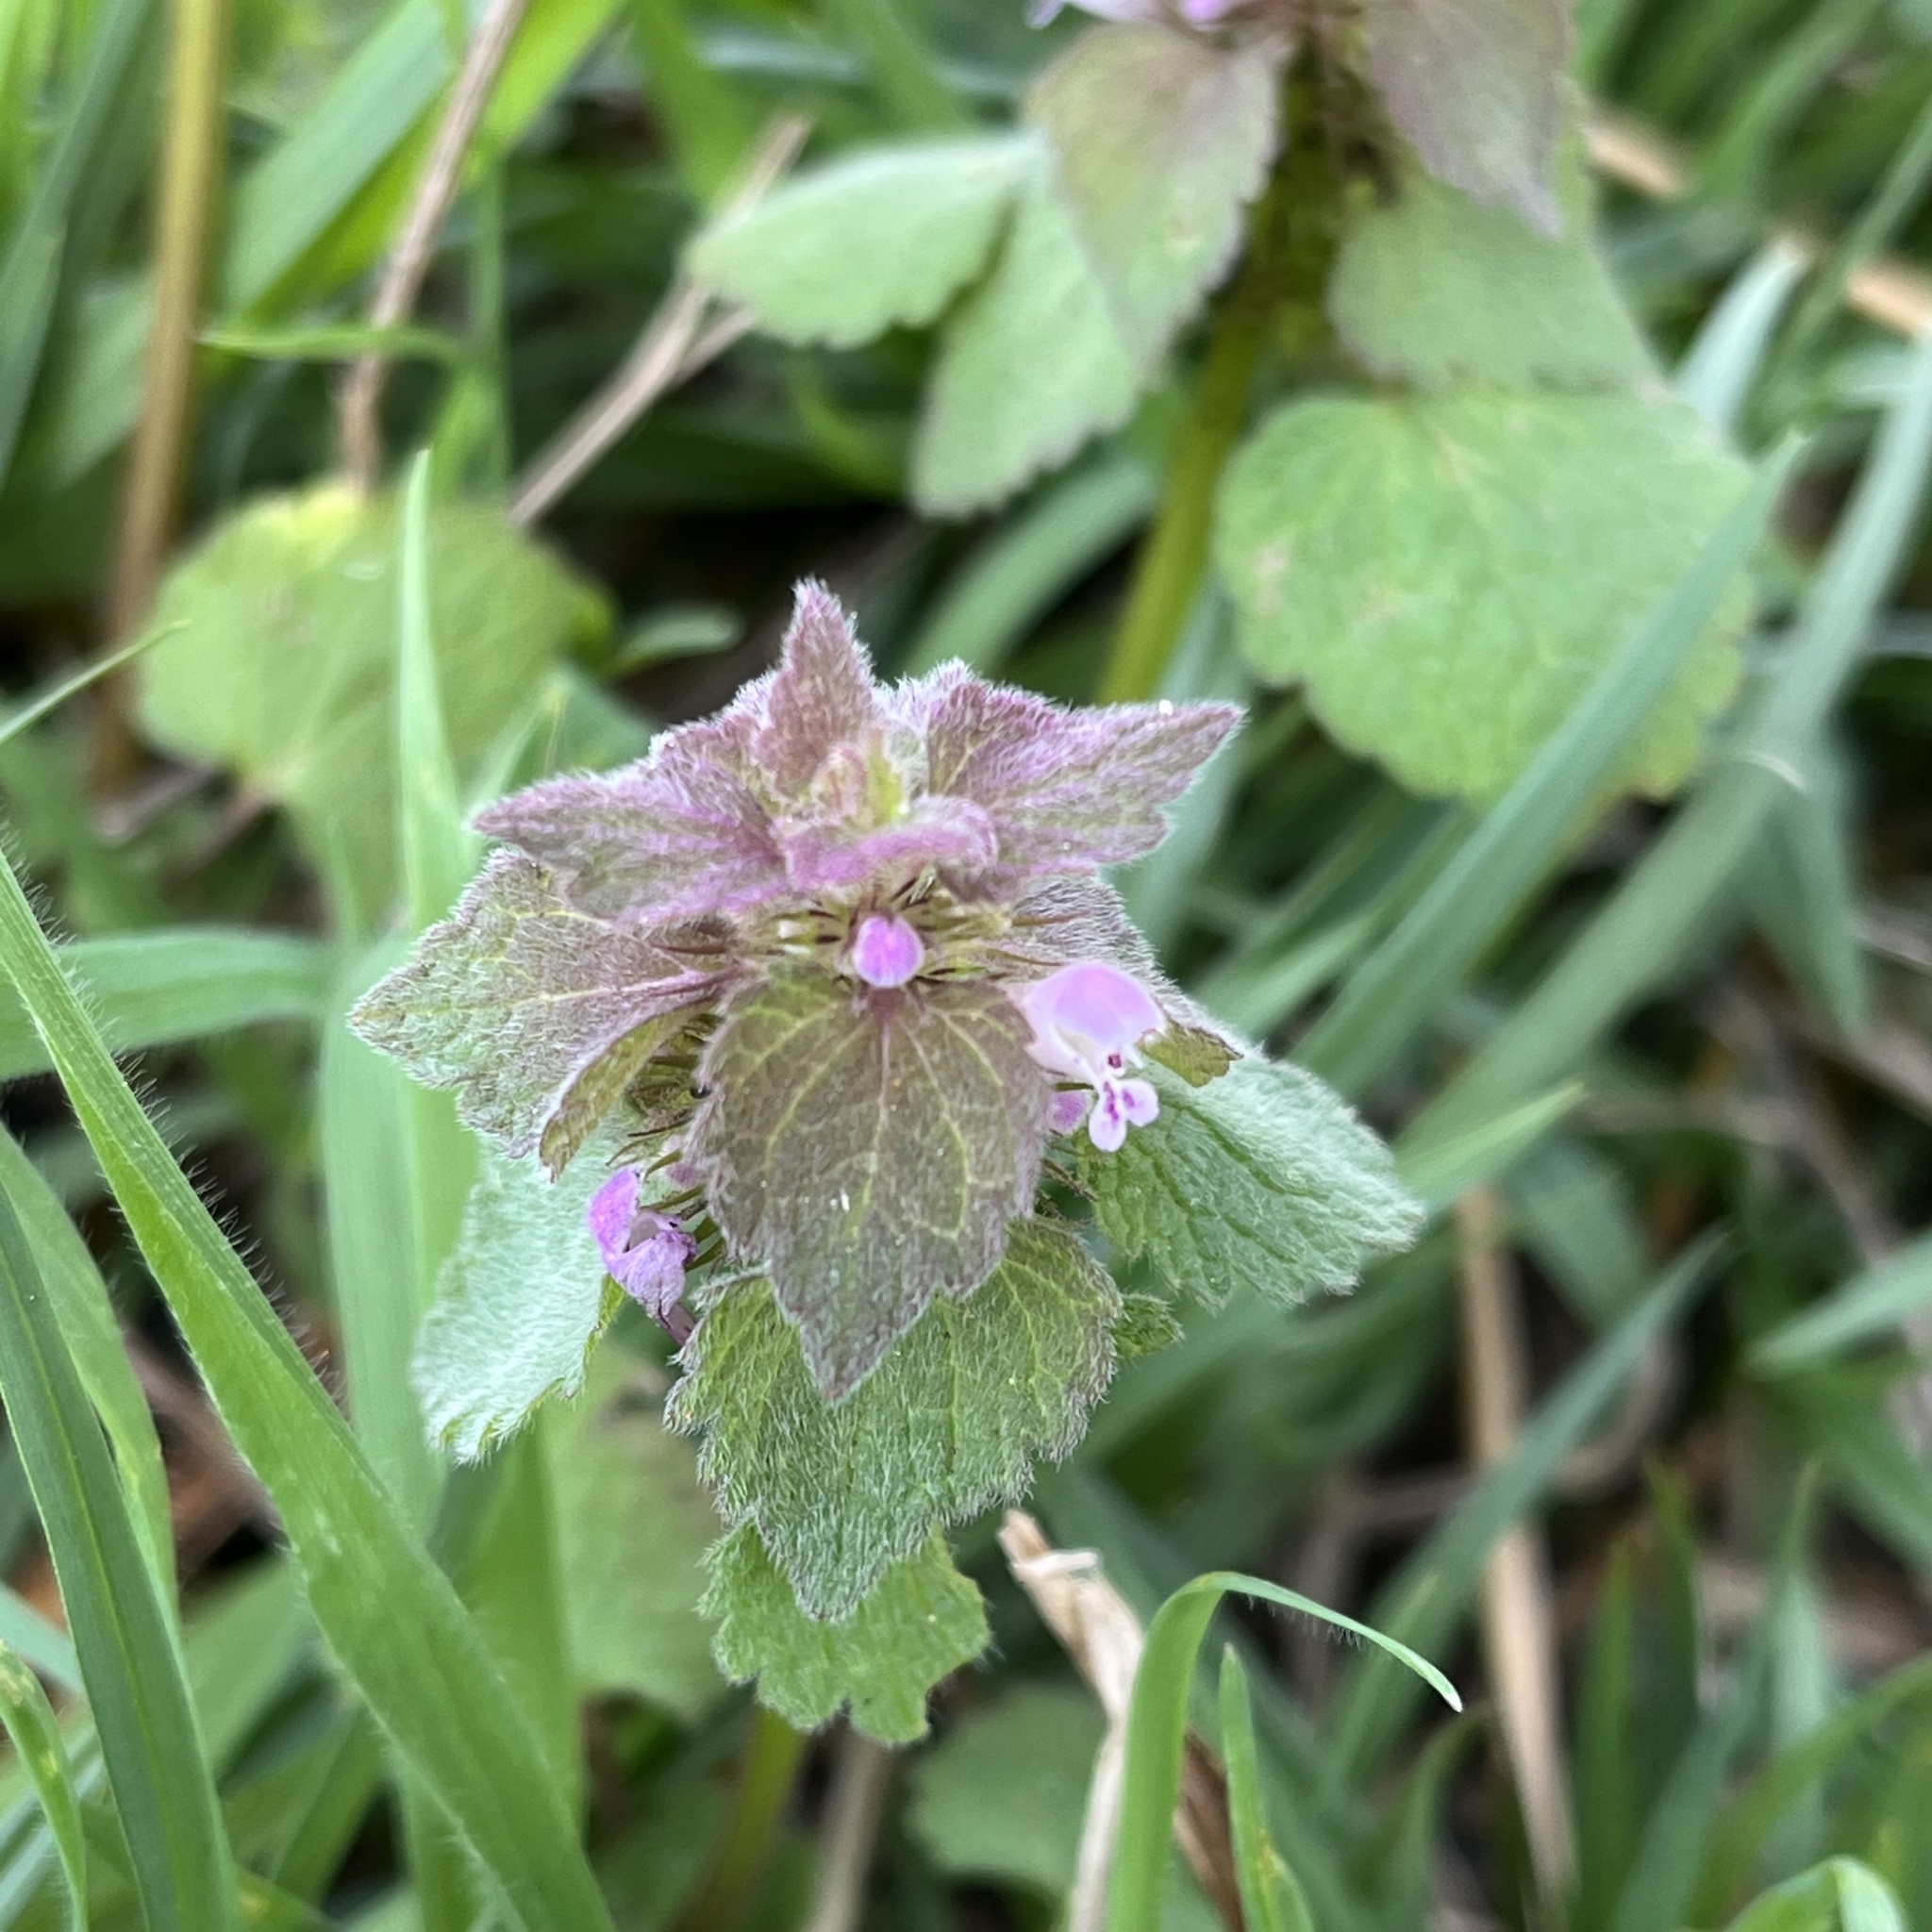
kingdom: Plantae
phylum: Tracheophyta
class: Magnoliopsida
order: Lamiales
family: Lamiaceae
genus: Lamium
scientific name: Lamium purpureum
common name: Red dead-nettle
